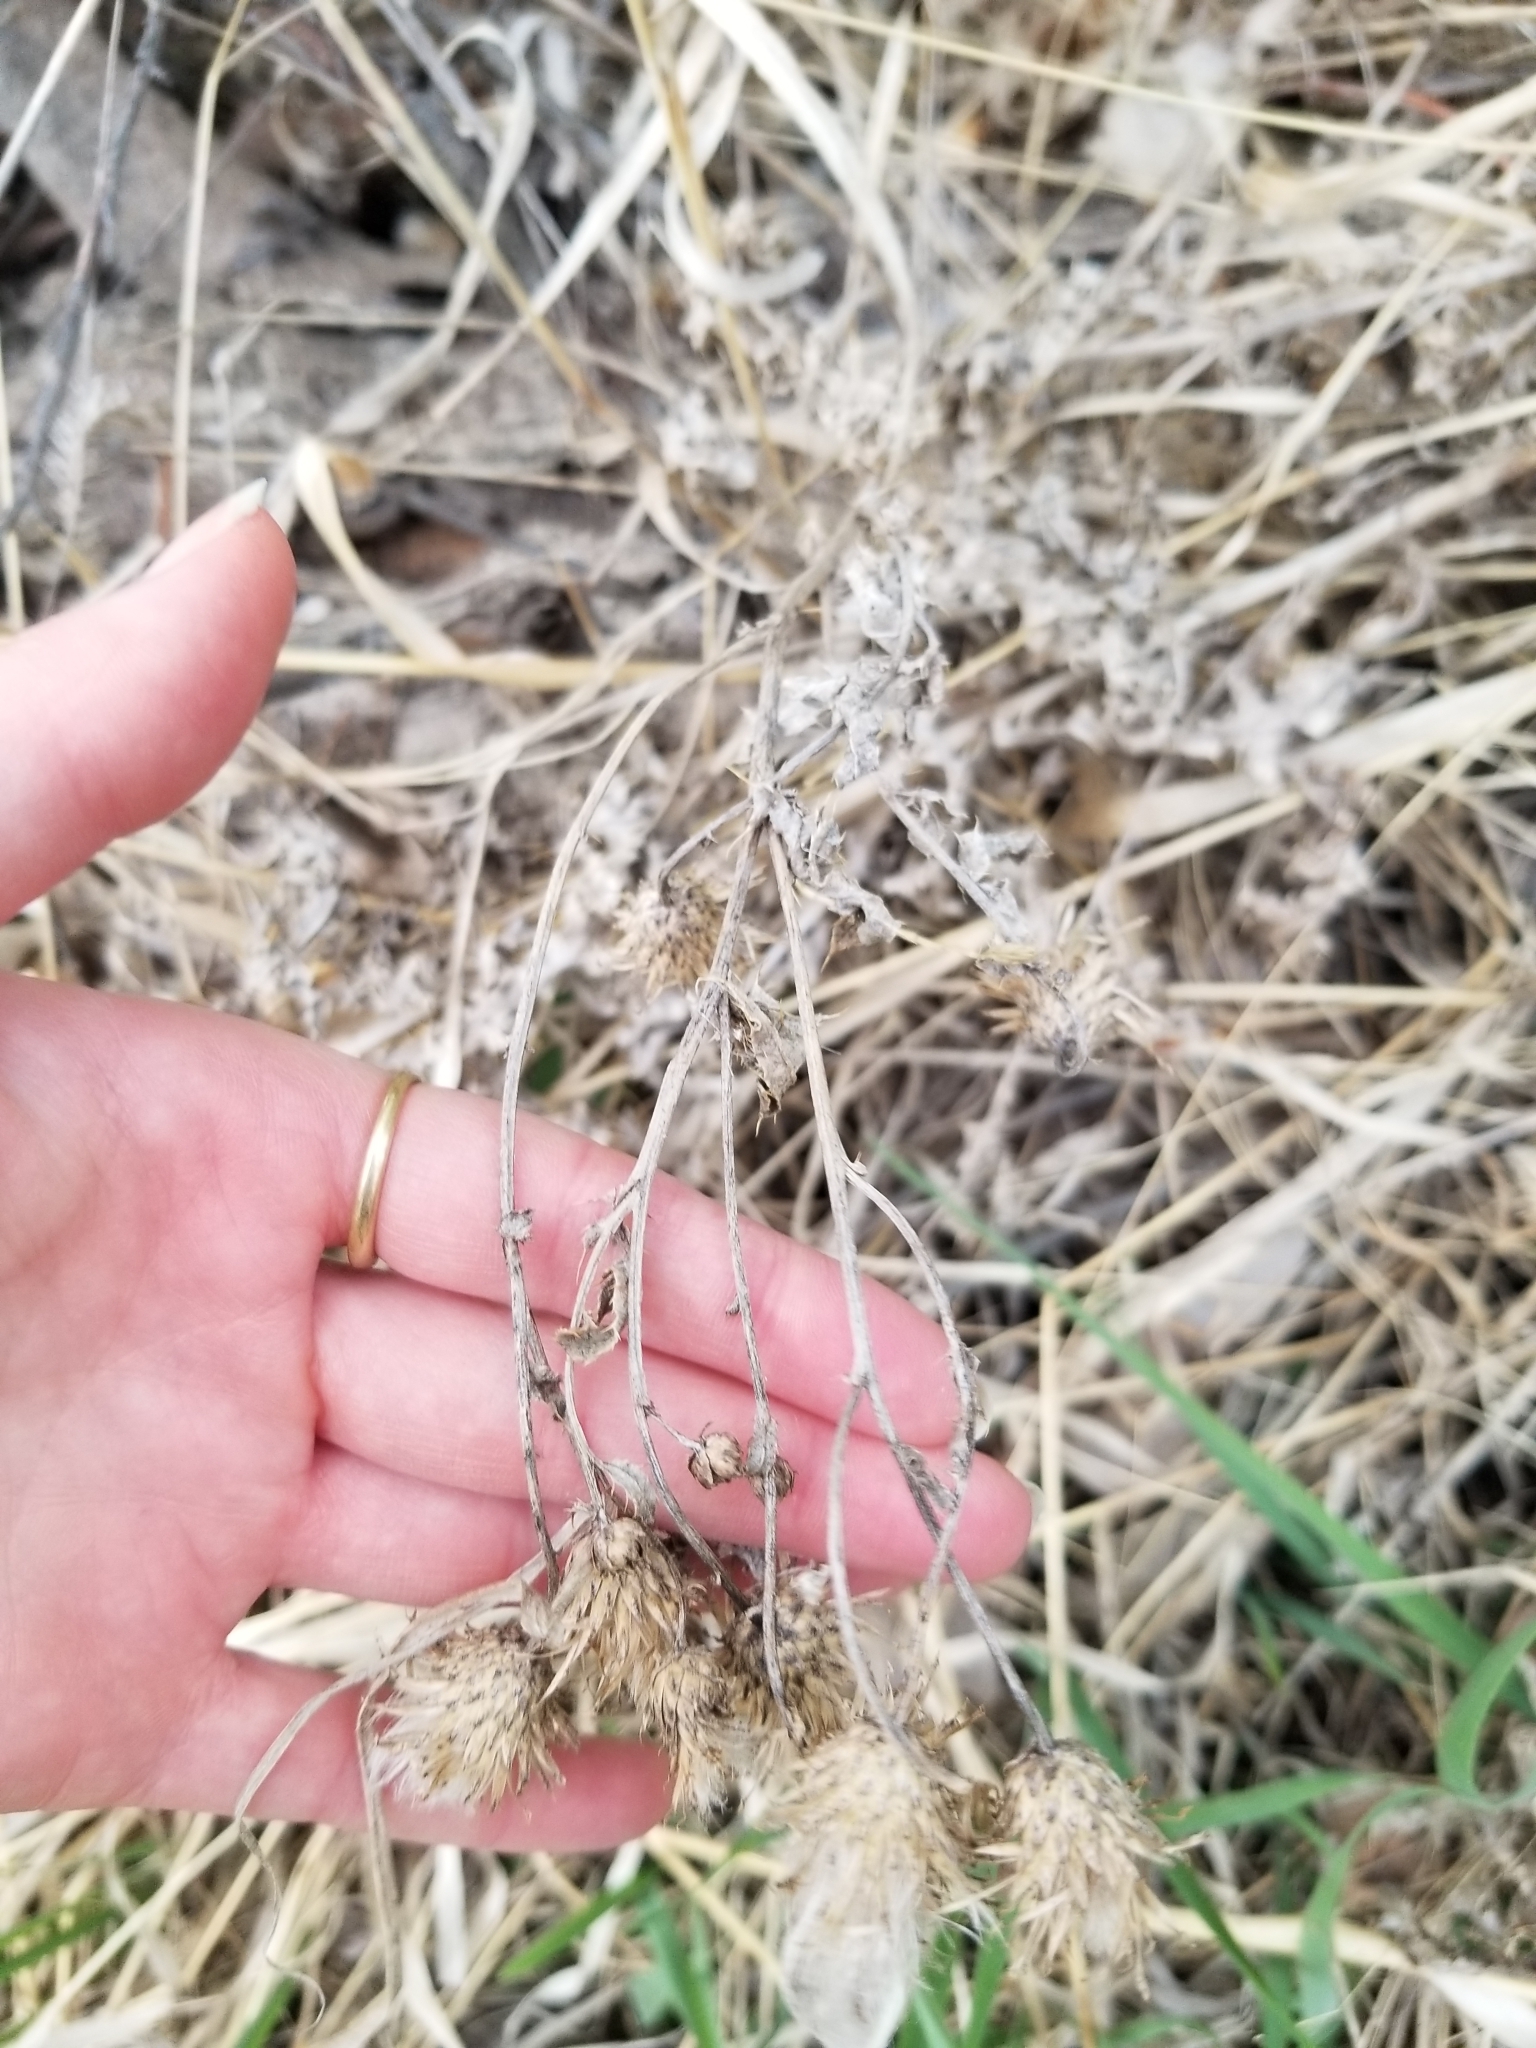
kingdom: Plantae
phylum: Tracheophyta
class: Magnoliopsida
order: Asterales
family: Asteraceae
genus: Cirsium
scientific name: Cirsium arvense
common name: Creeping thistle
